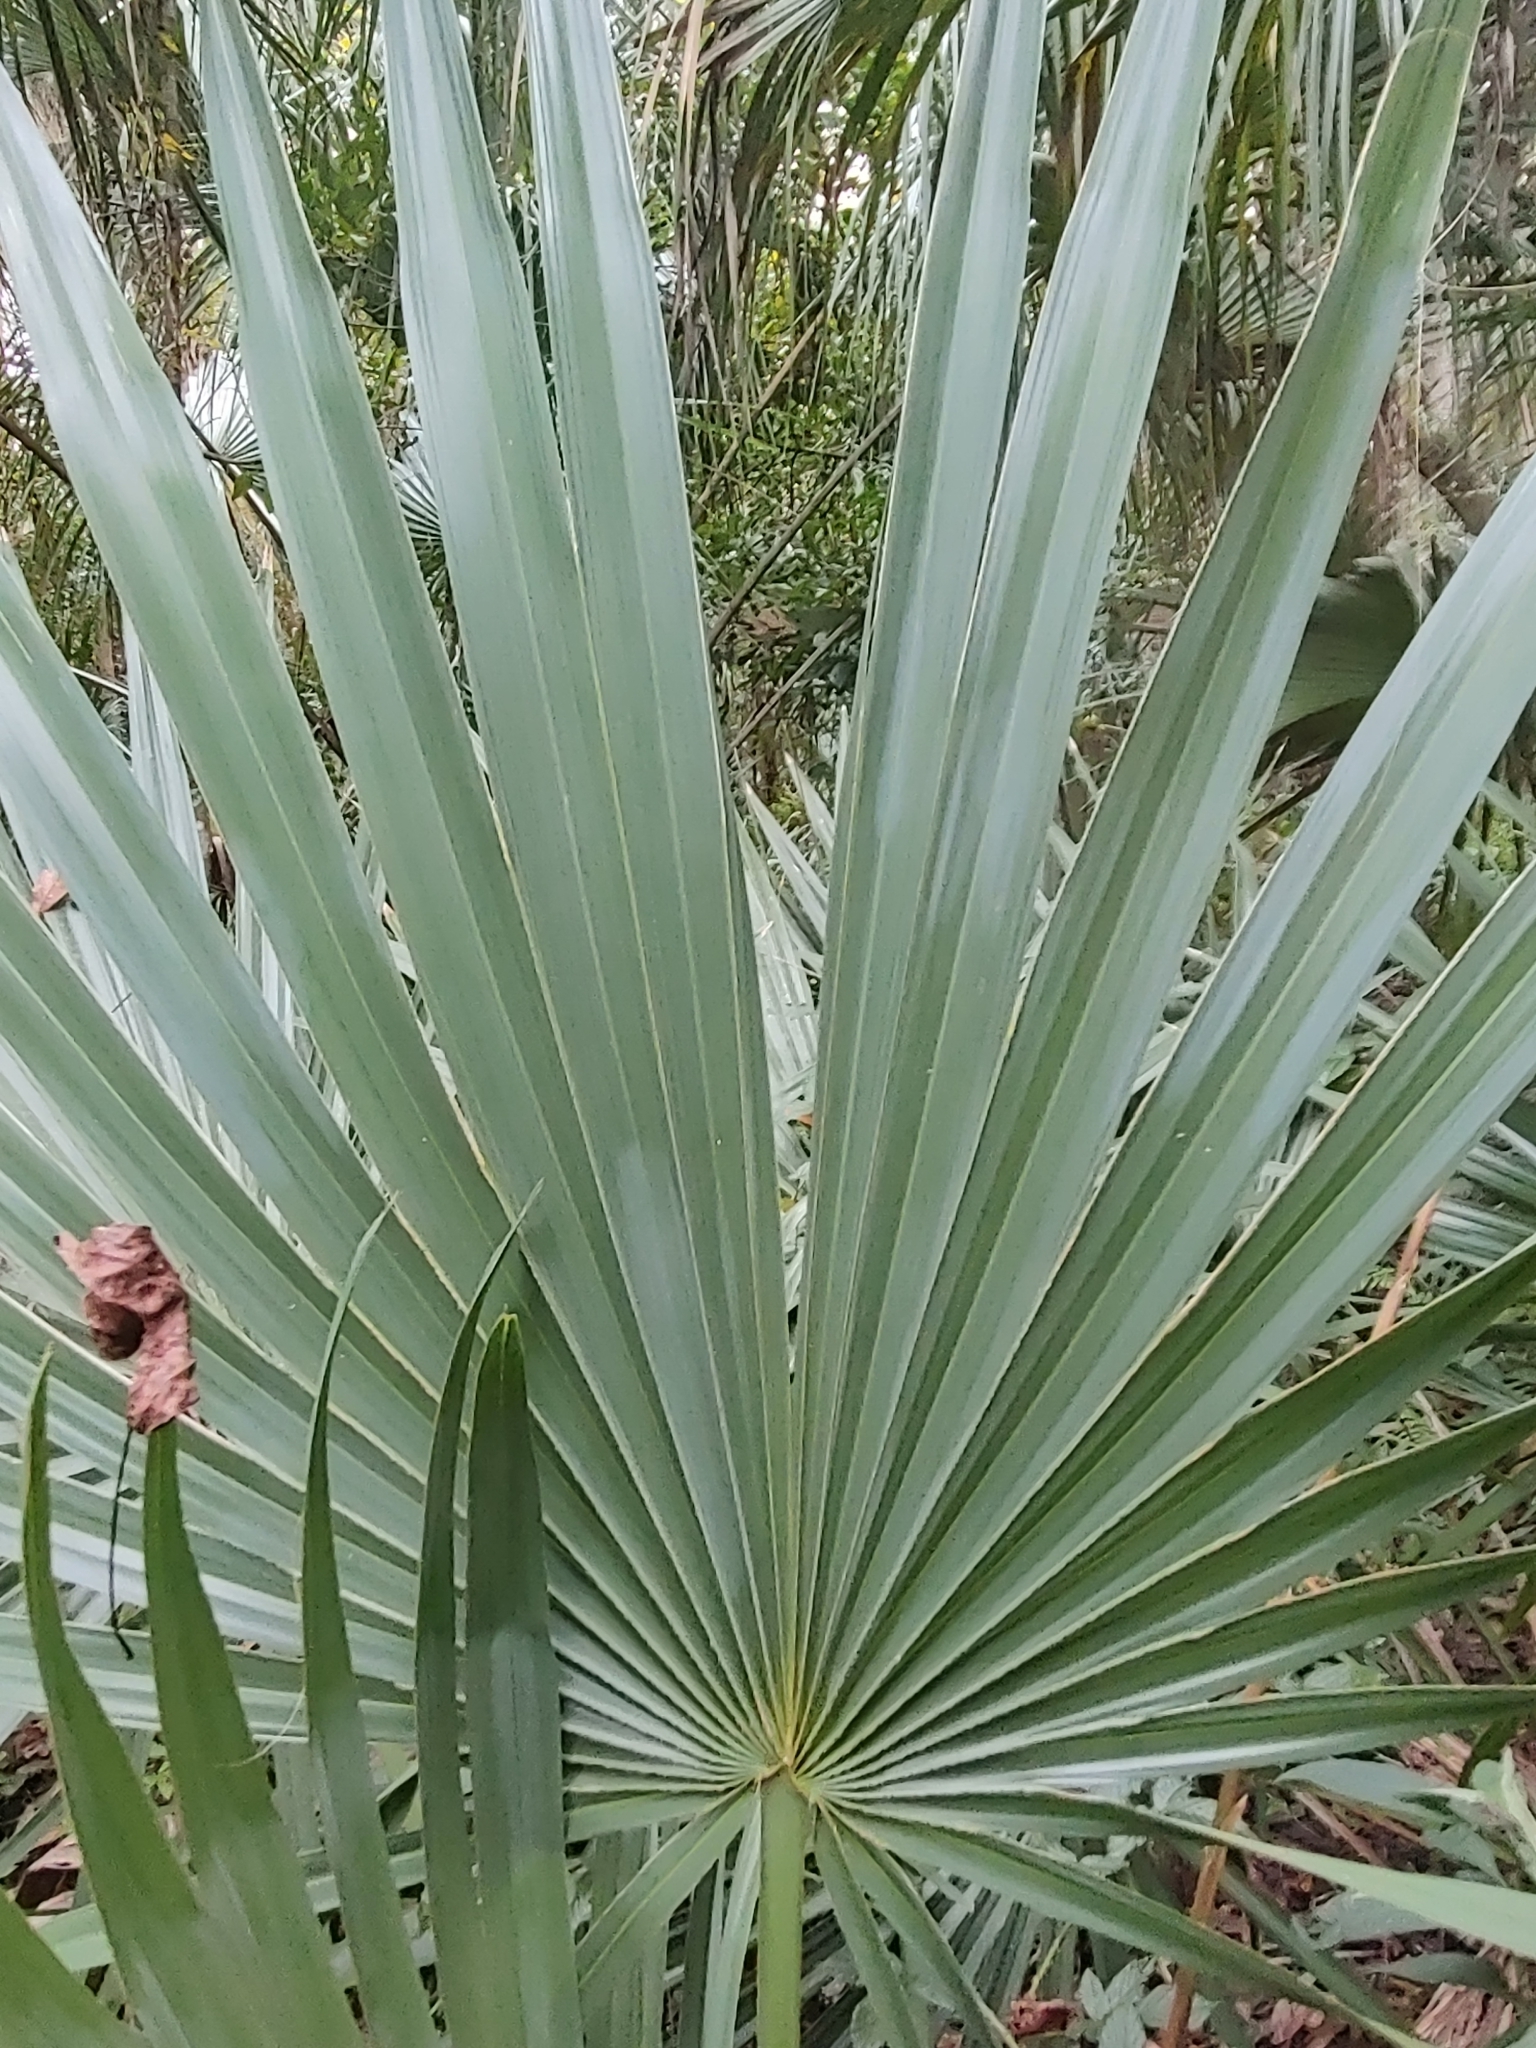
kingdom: Plantae
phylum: Tracheophyta
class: Liliopsida
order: Arecales
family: Arecaceae
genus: Sabal
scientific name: Sabal minor
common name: Dwarf palmetto
